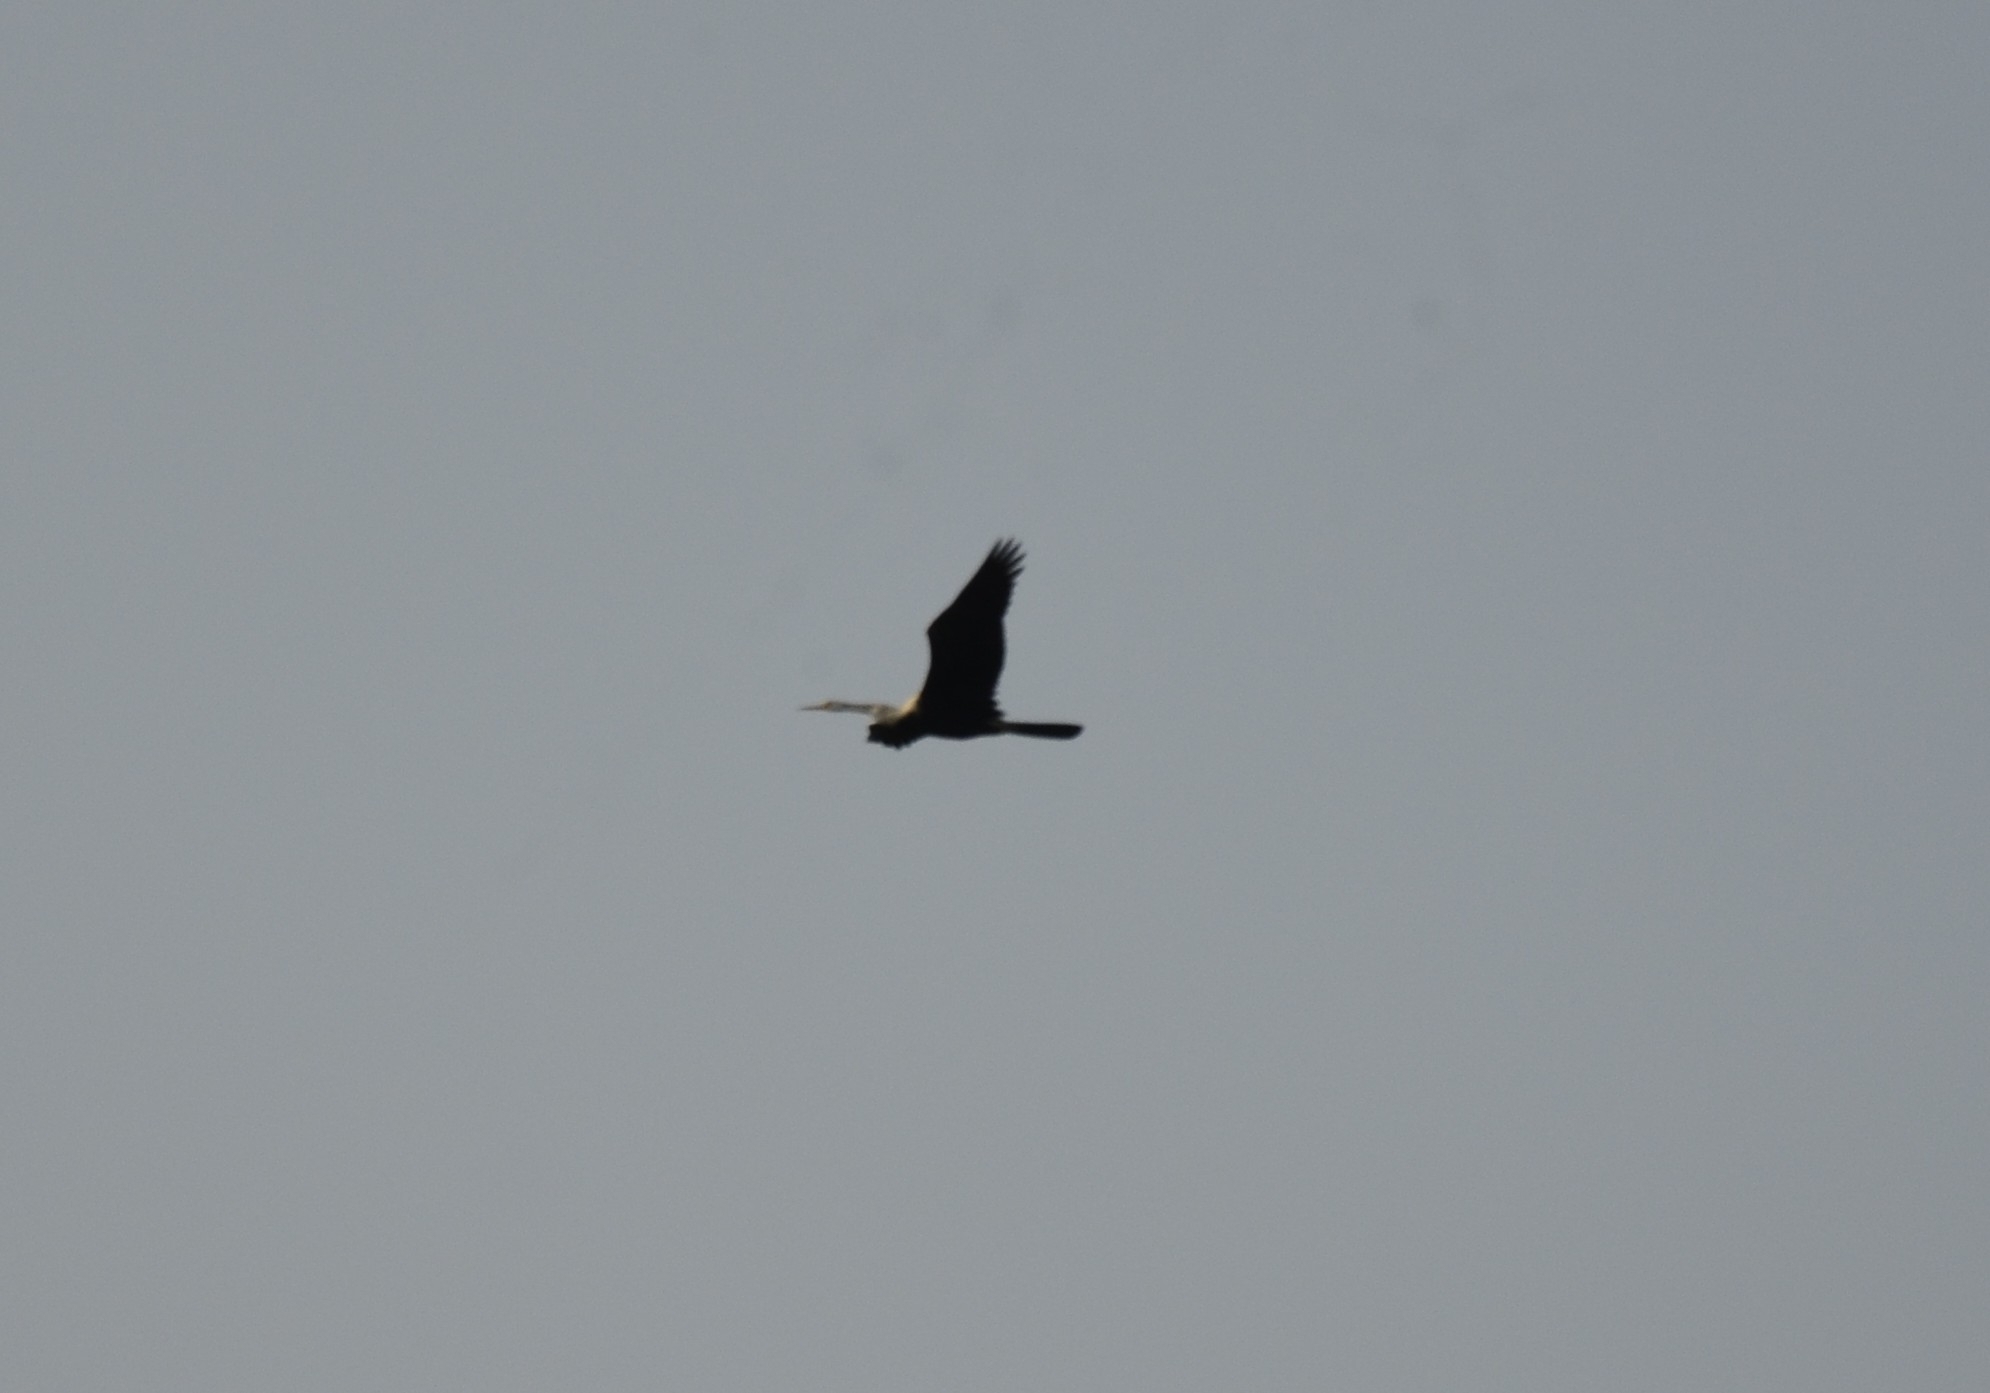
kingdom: Animalia
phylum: Chordata
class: Aves
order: Suliformes
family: Anhingidae
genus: Anhinga
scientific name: Anhinga melanogaster
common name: Oriental darter
